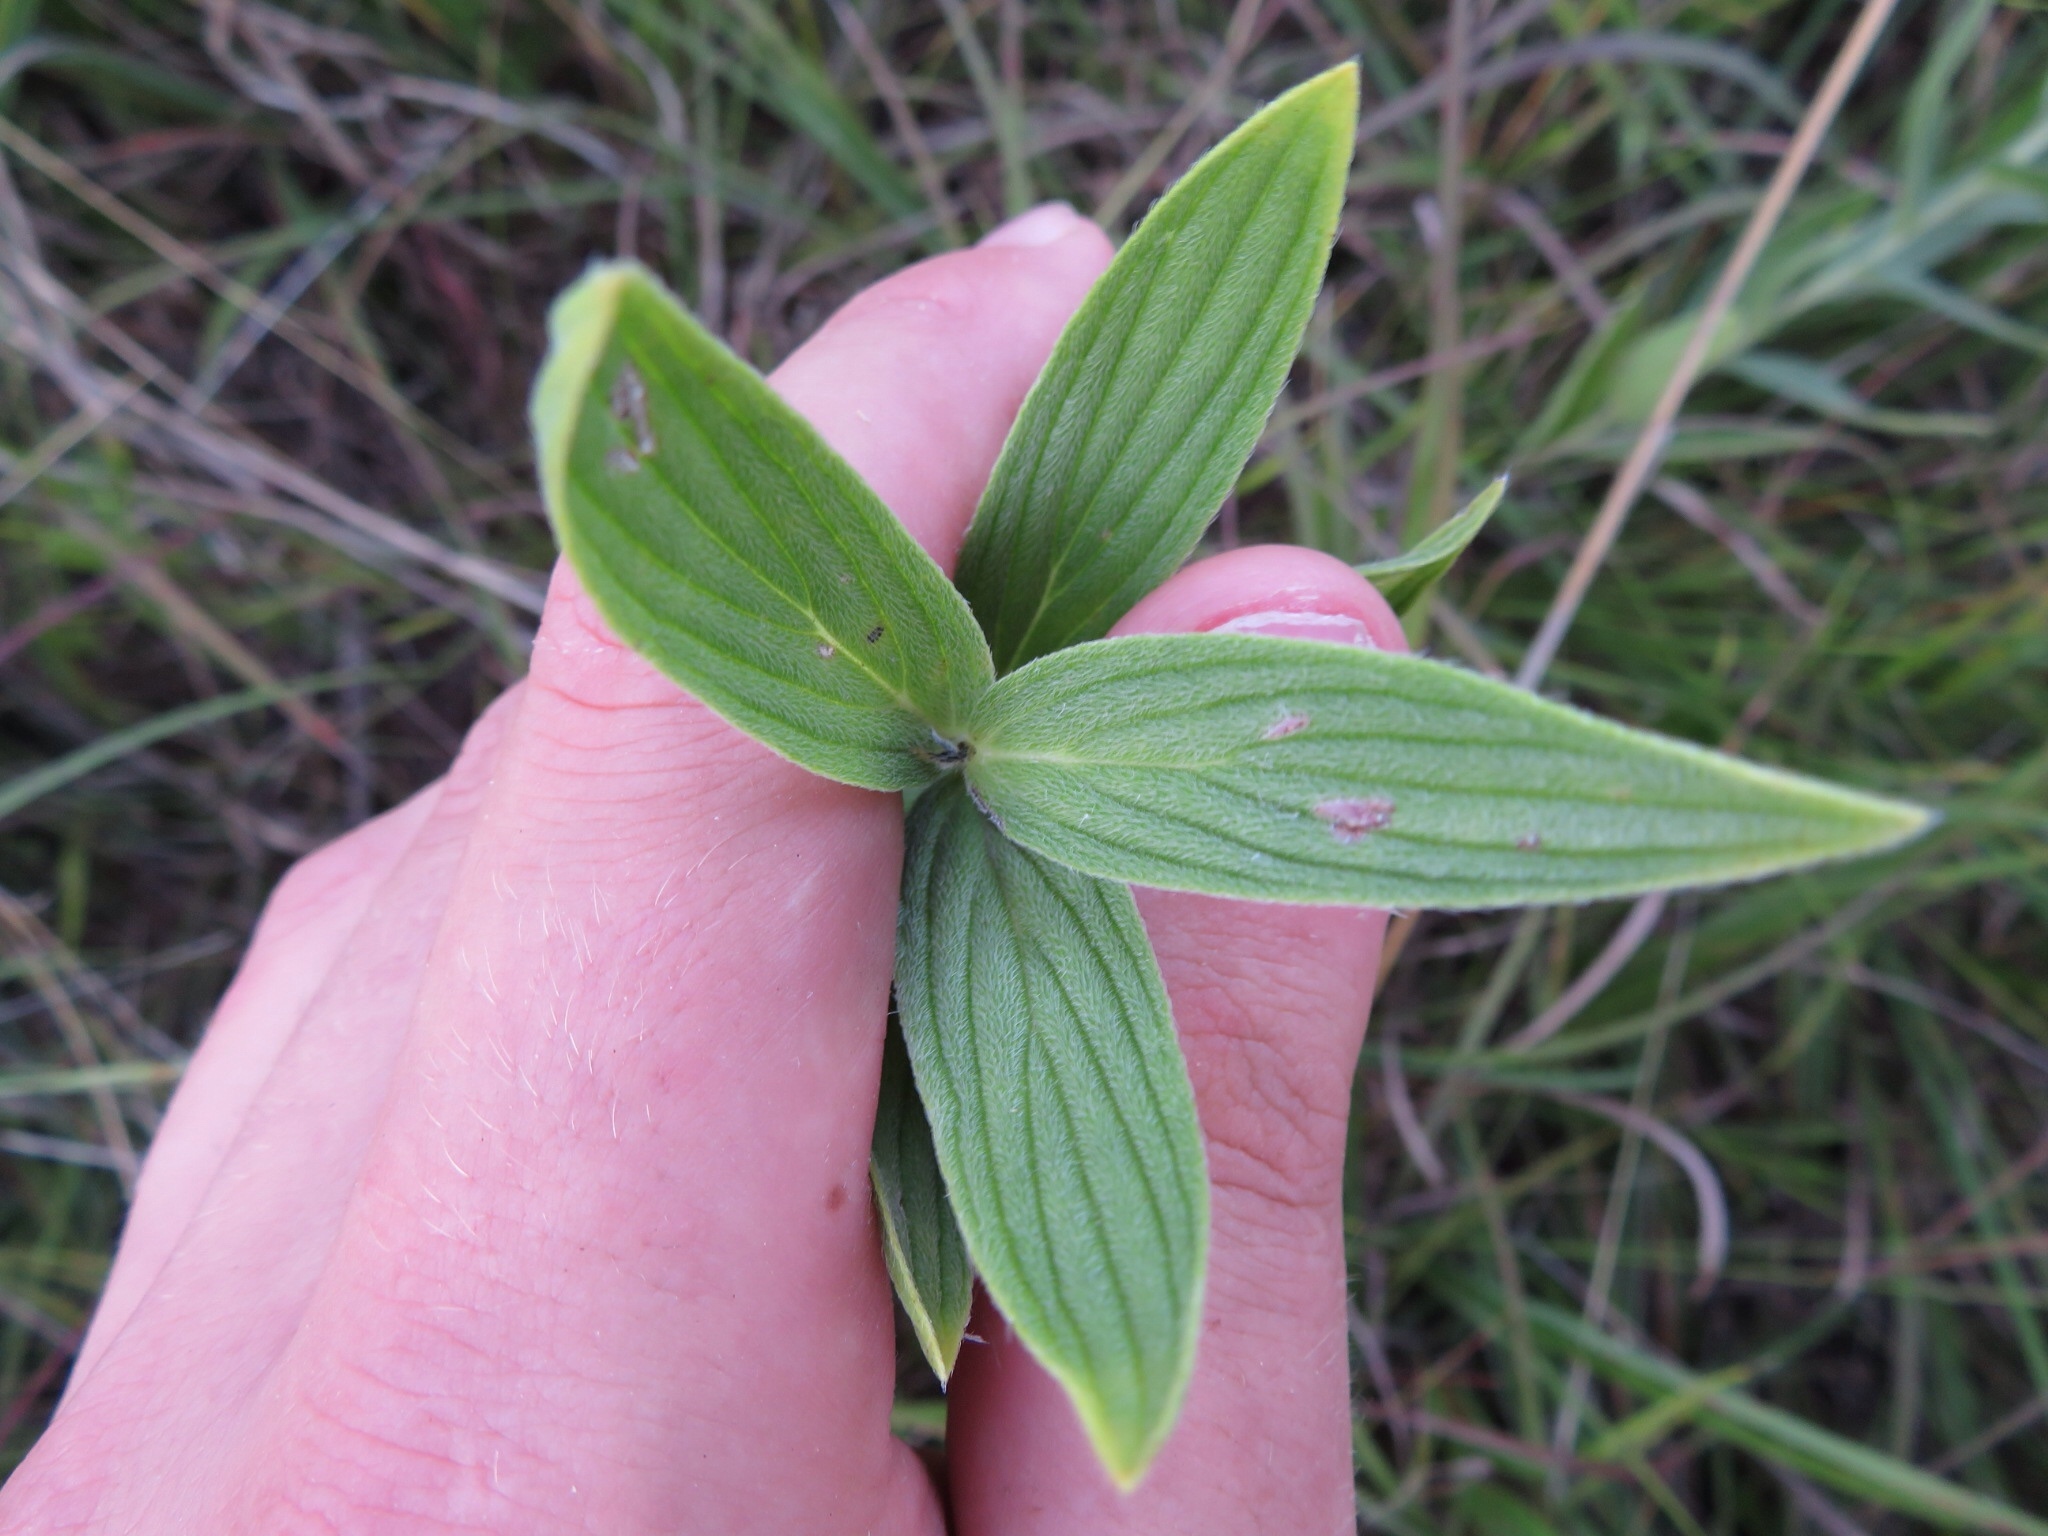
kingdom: Plantae
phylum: Tracheophyta
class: Magnoliopsida
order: Boraginales
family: Boraginaceae
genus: Lithospermum
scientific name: Lithospermum occidentale
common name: Western false gromwell
